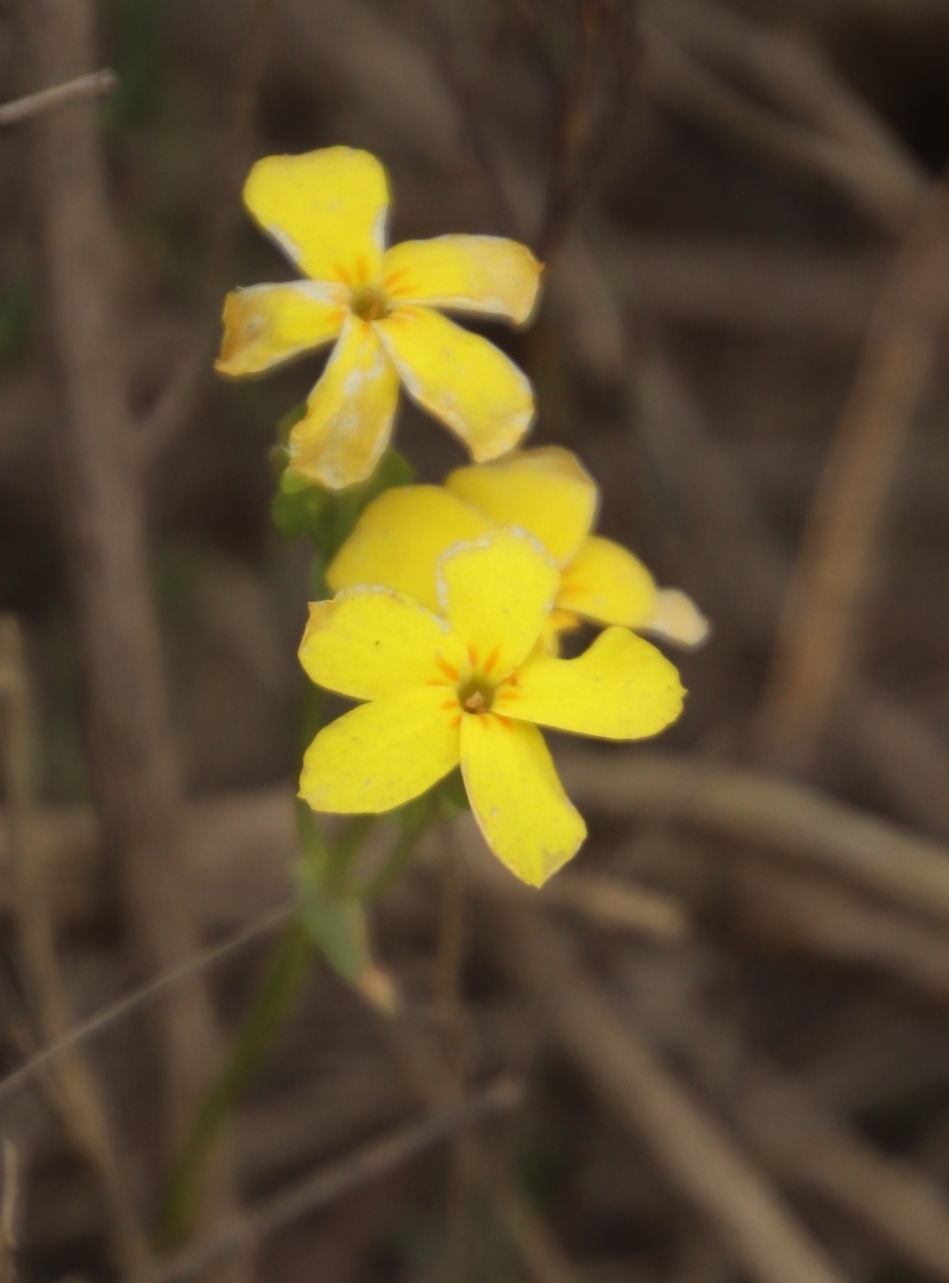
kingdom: Plantae
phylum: Tracheophyta
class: Magnoliopsida
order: Gentianales
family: Gentianaceae
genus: Sebaea
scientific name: Sebaea exacoides
